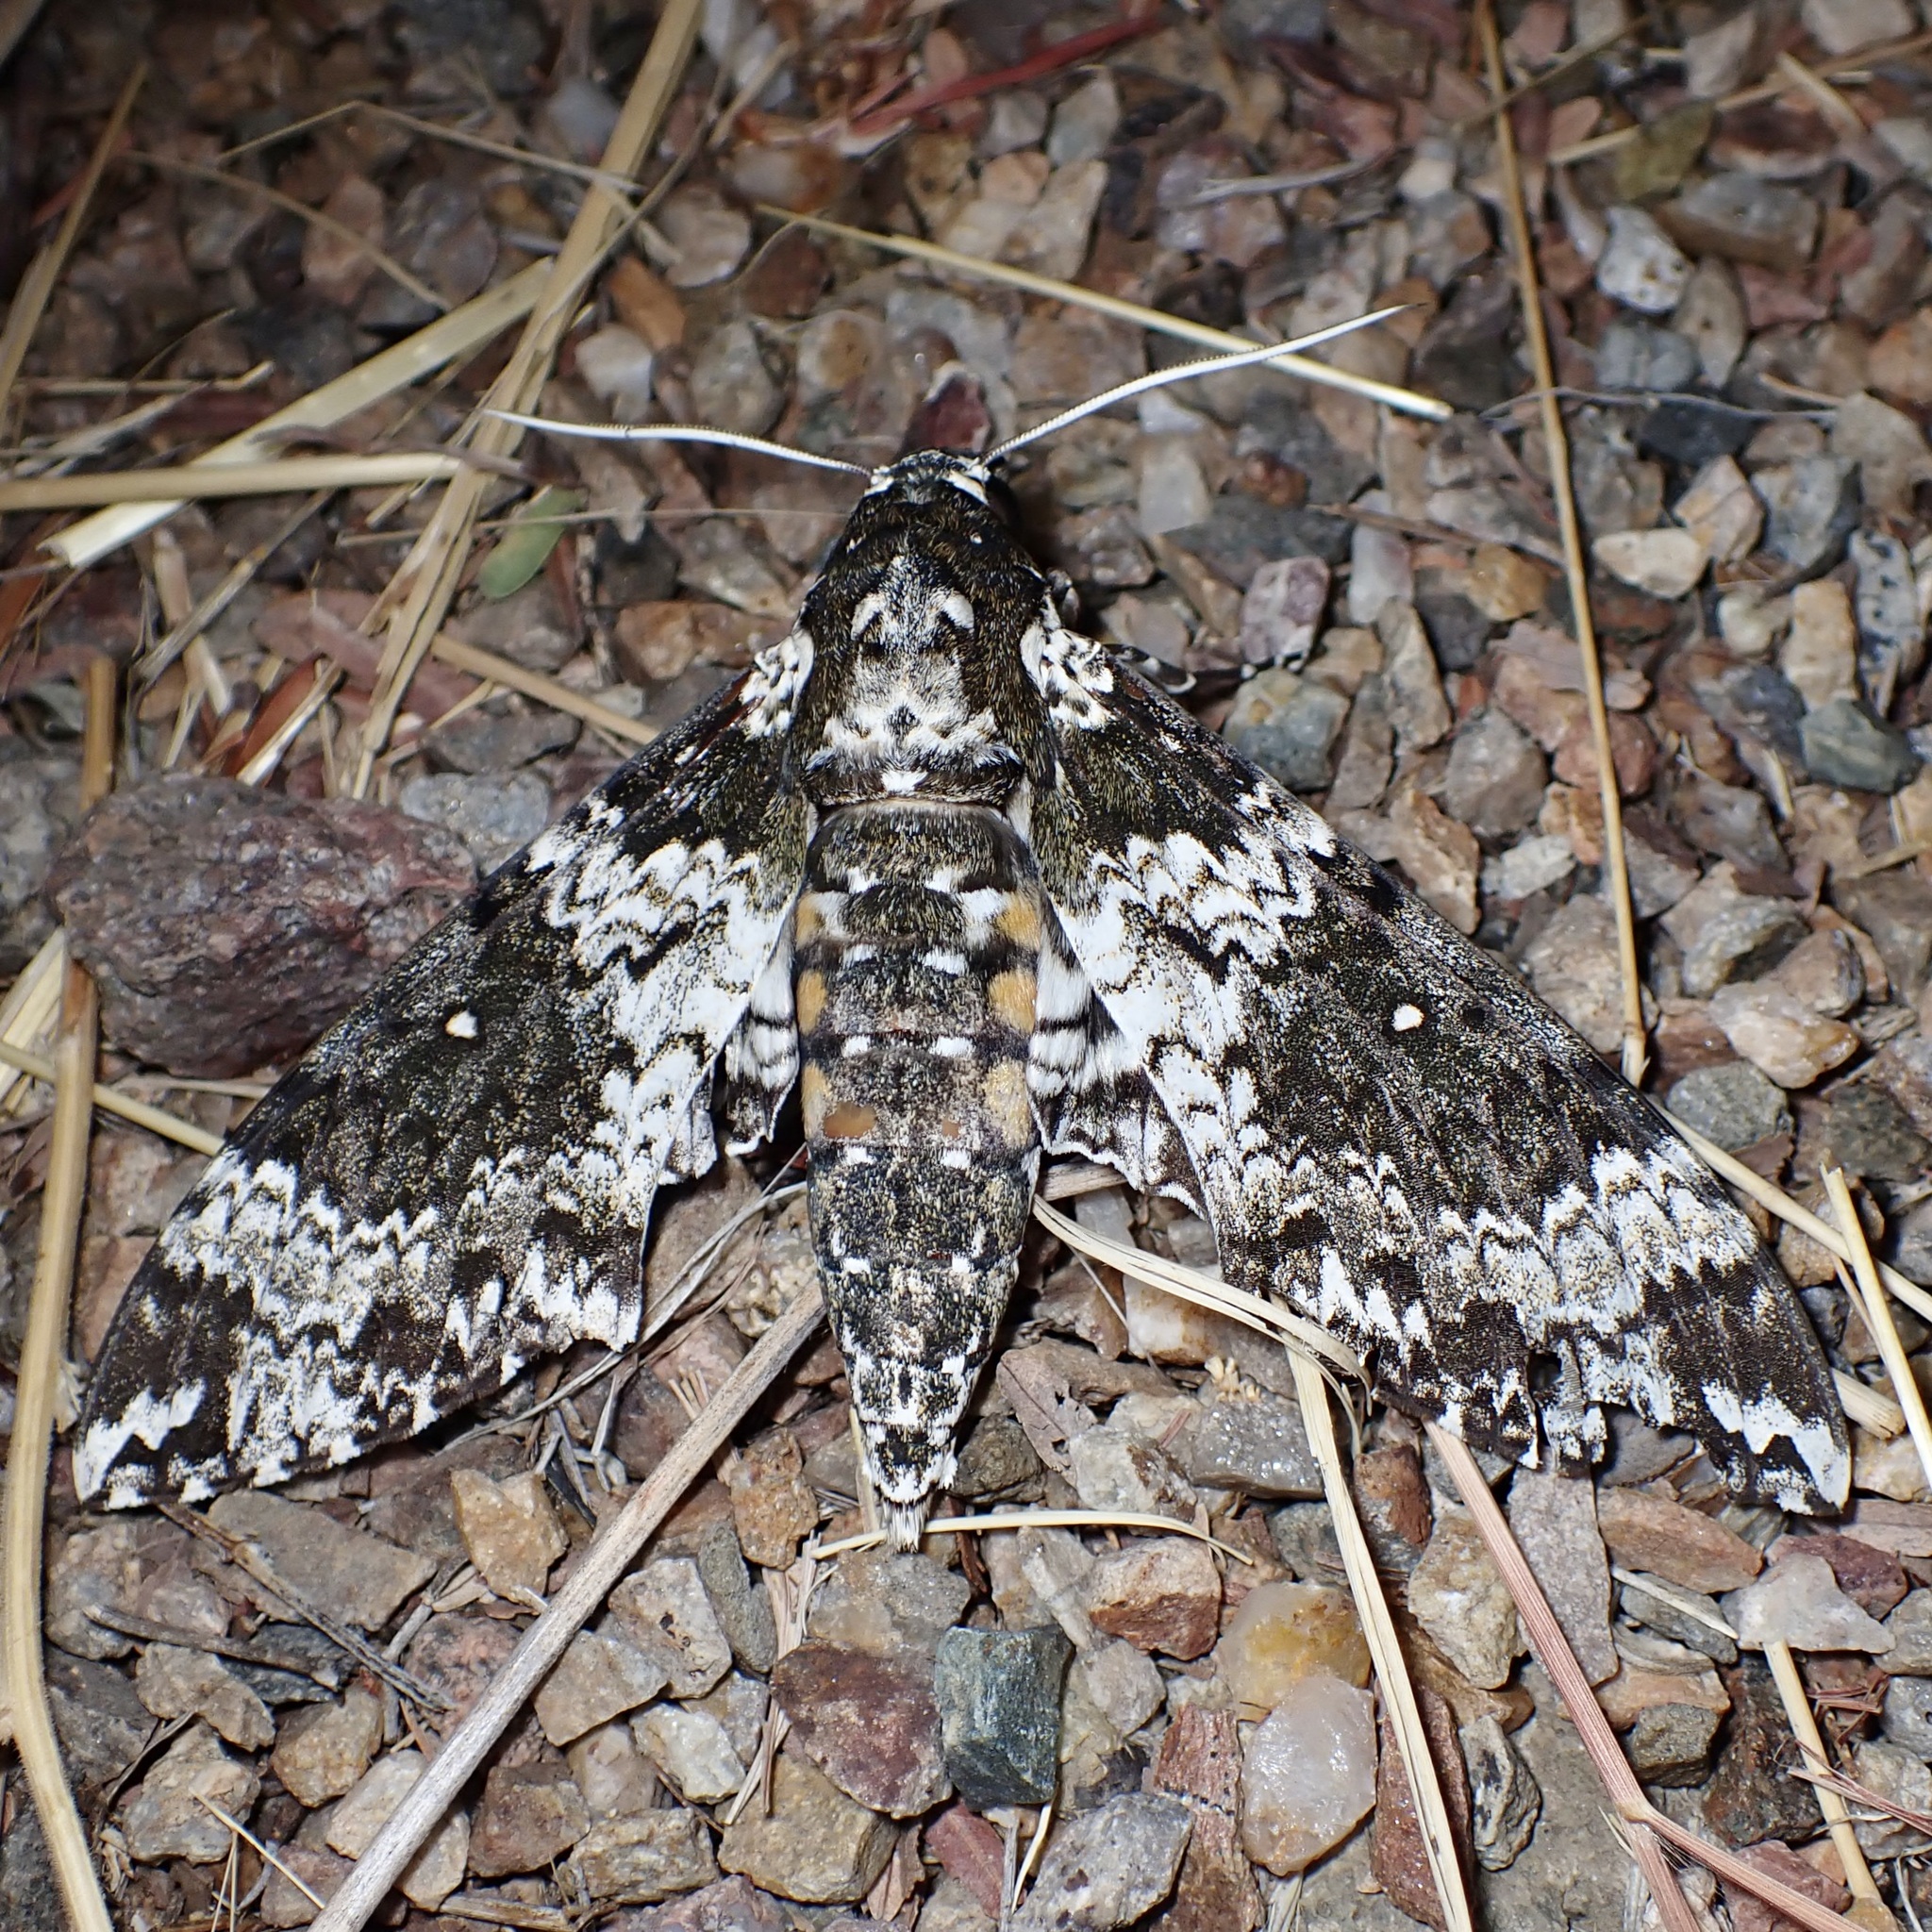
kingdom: Animalia
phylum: Arthropoda
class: Insecta
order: Lepidoptera
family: Sphingidae
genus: Manduca
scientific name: Manduca rustica
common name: Rustic sphinx
